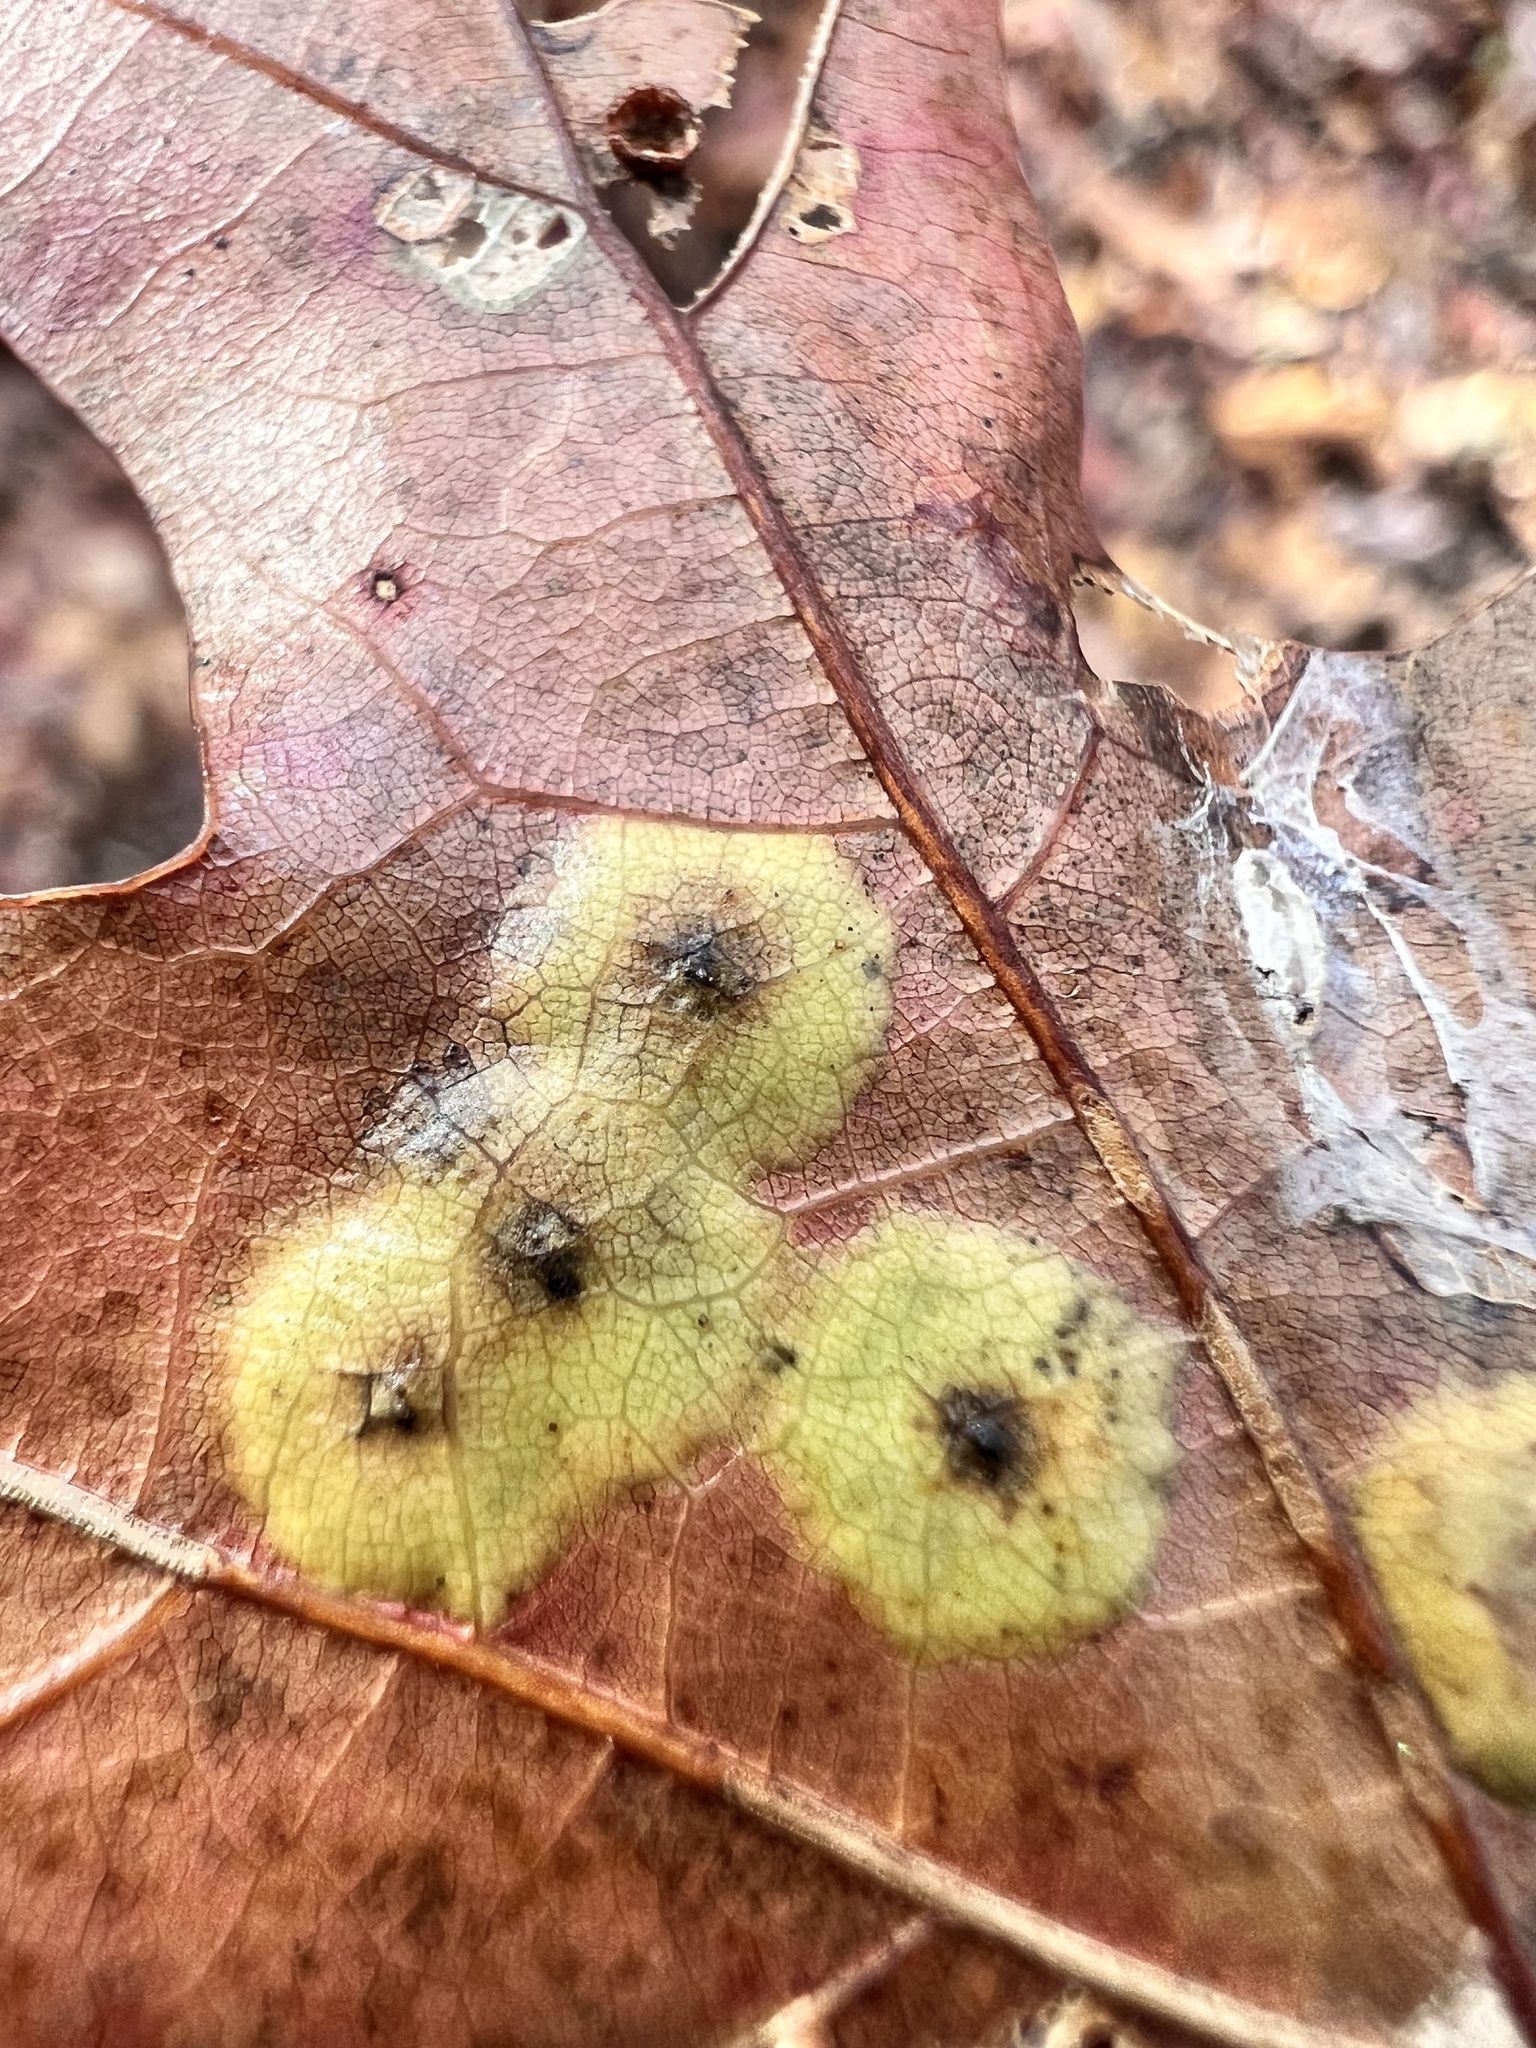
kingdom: Animalia
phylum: Arthropoda
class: Insecta
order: Diptera
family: Cecidomyiidae
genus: Polystepha
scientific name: Polystepha pustuloides
